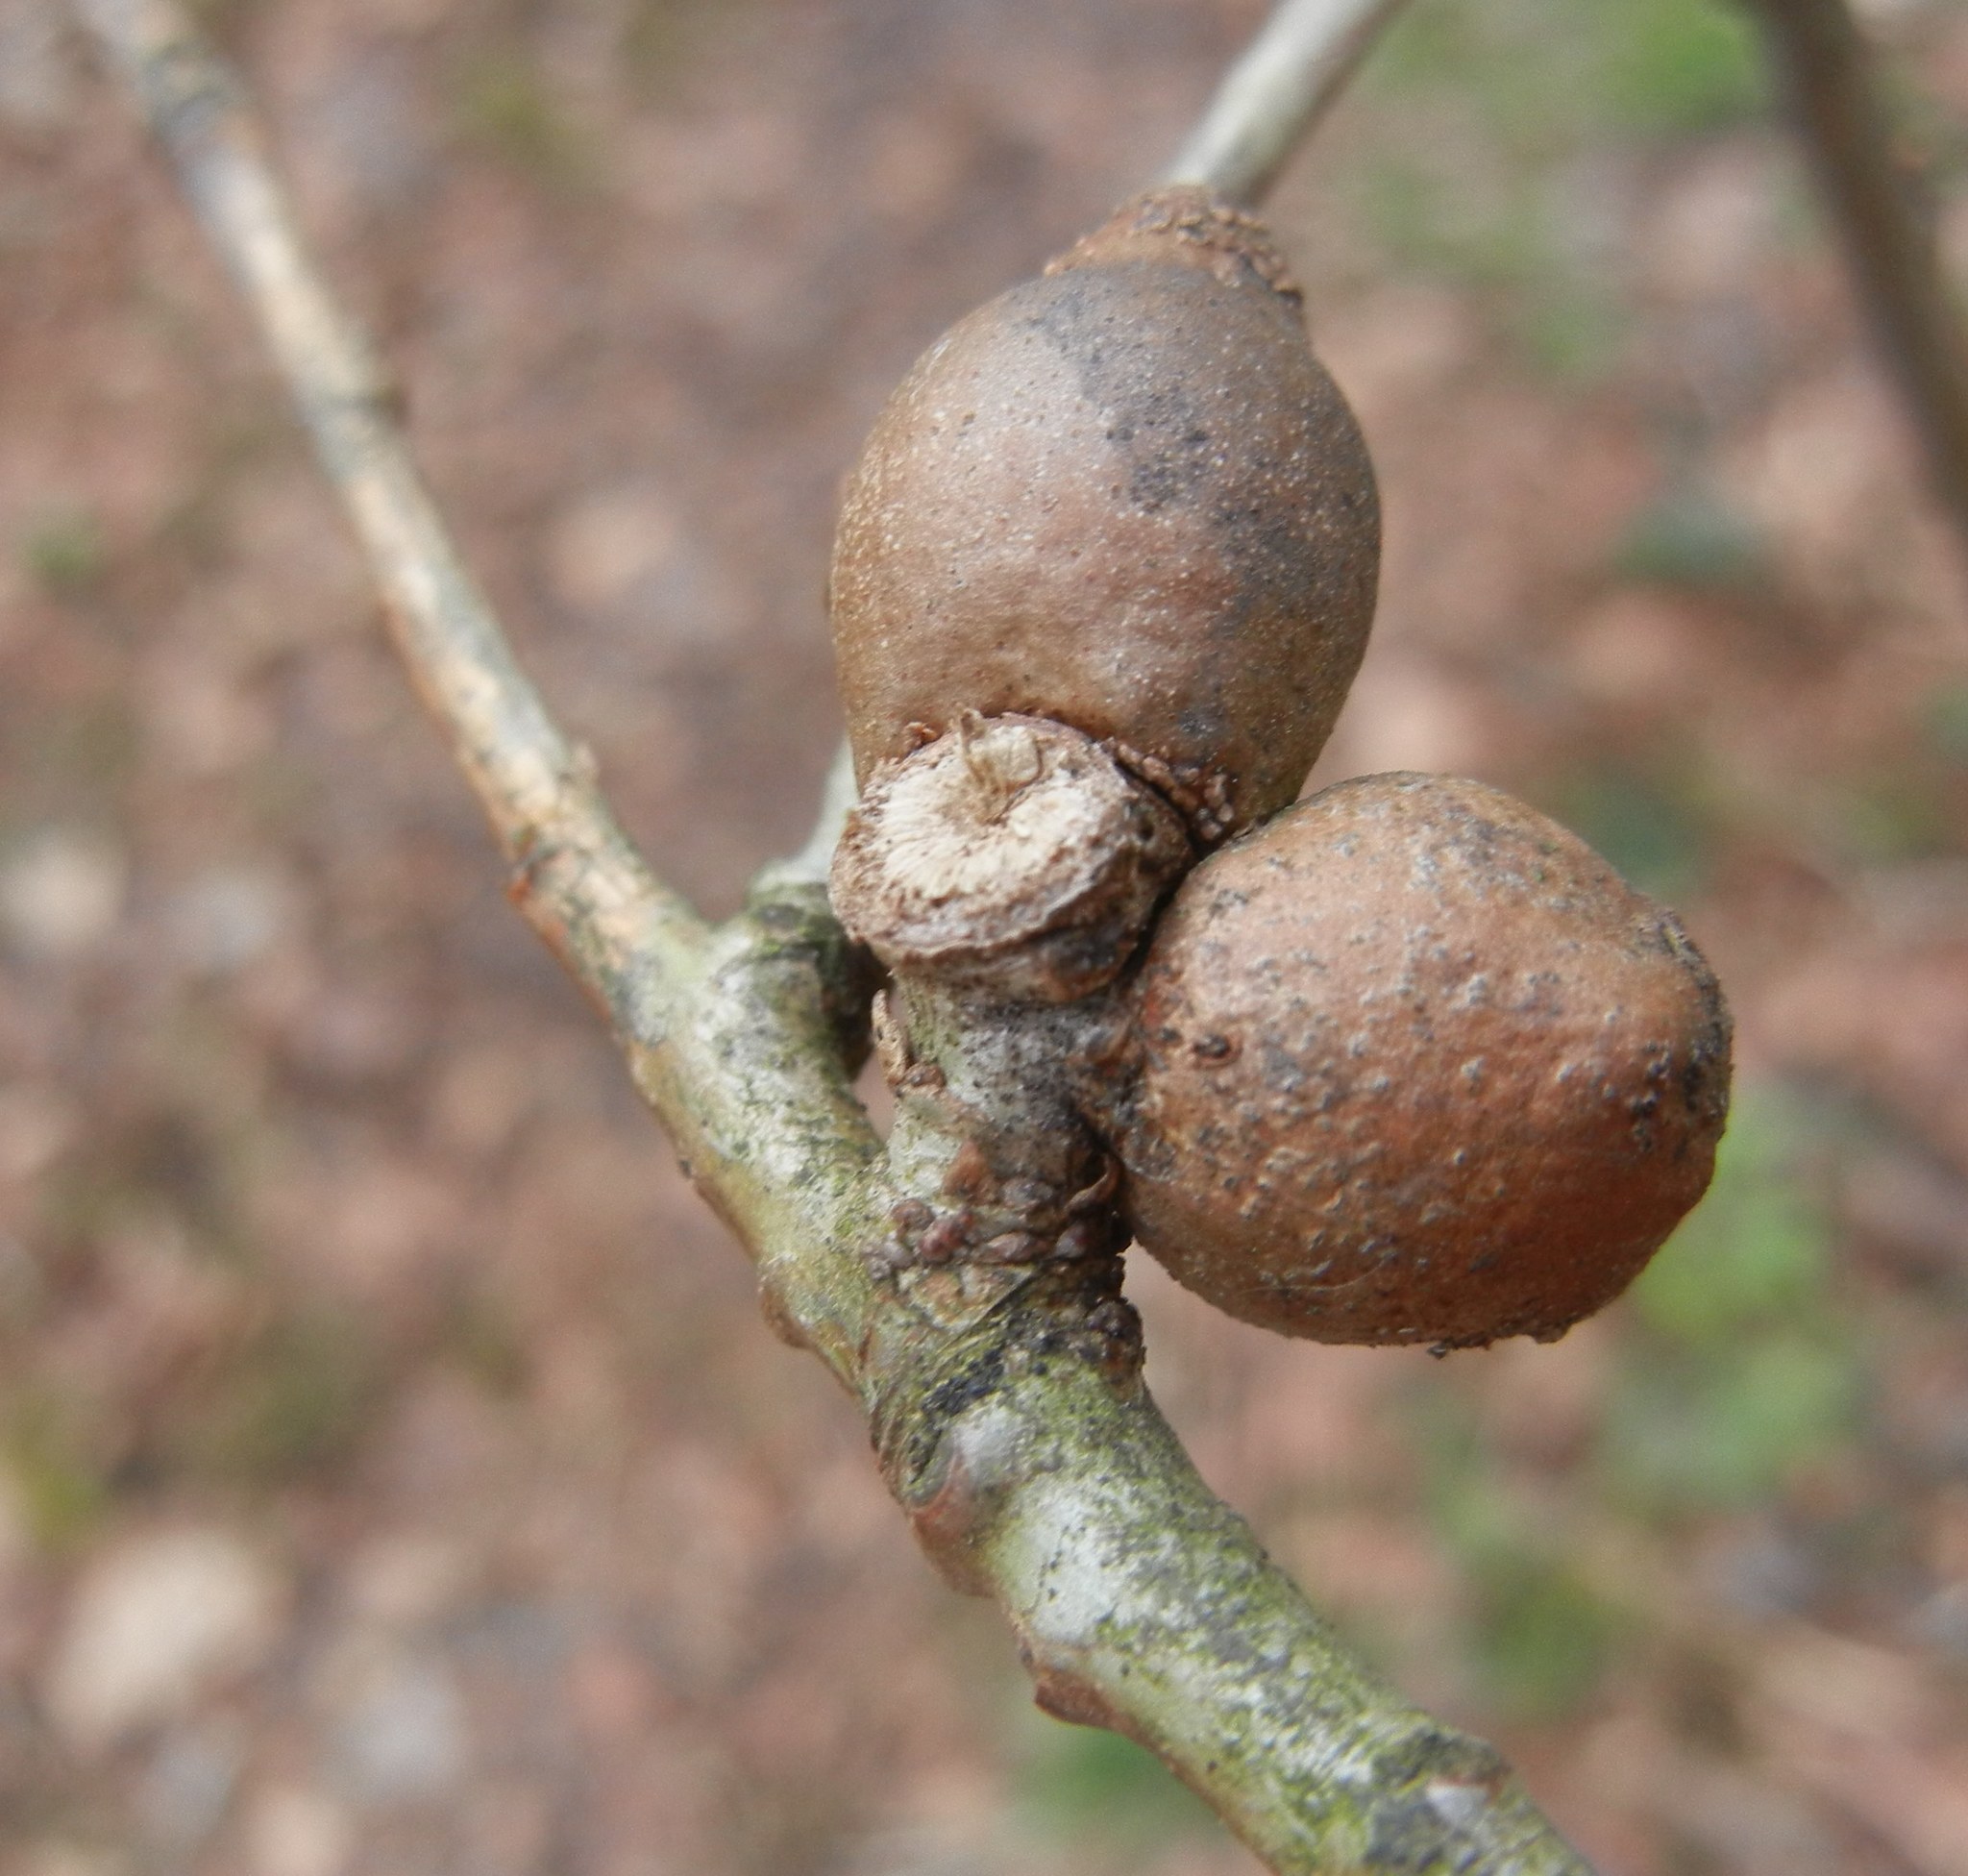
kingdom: Animalia
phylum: Arthropoda
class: Insecta
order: Hymenoptera
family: Cynipidae
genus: Andricus
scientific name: Andricus kollari
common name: Marble gall
